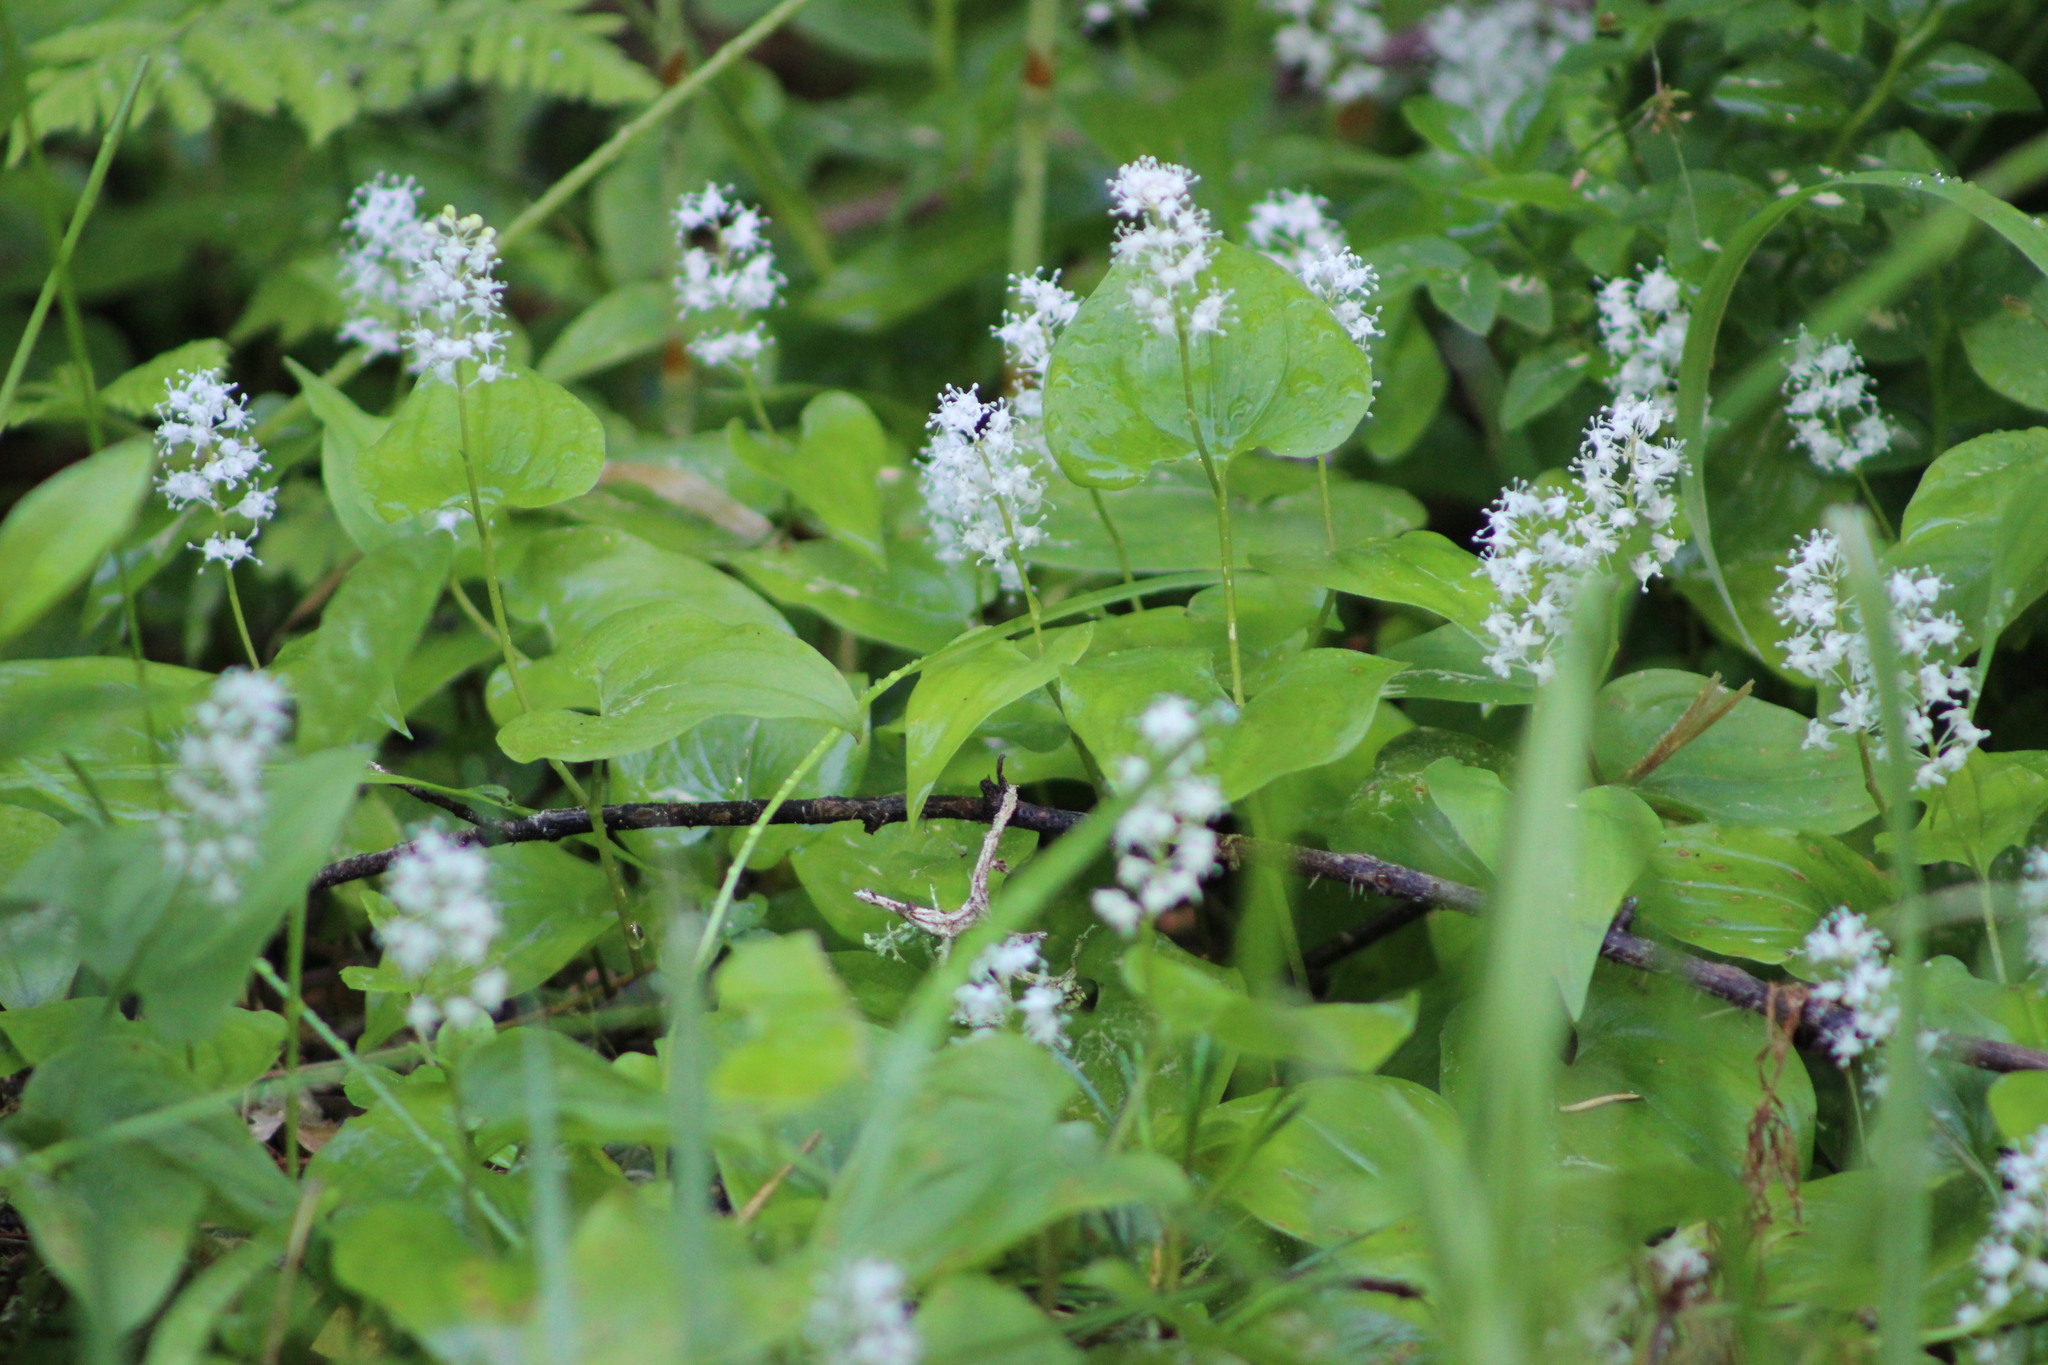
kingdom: Plantae
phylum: Tracheophyta
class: Liliopsida
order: Asparagales
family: Asparagaceae
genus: Maianthemum
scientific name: Maianthemum bifolium
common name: May lily
